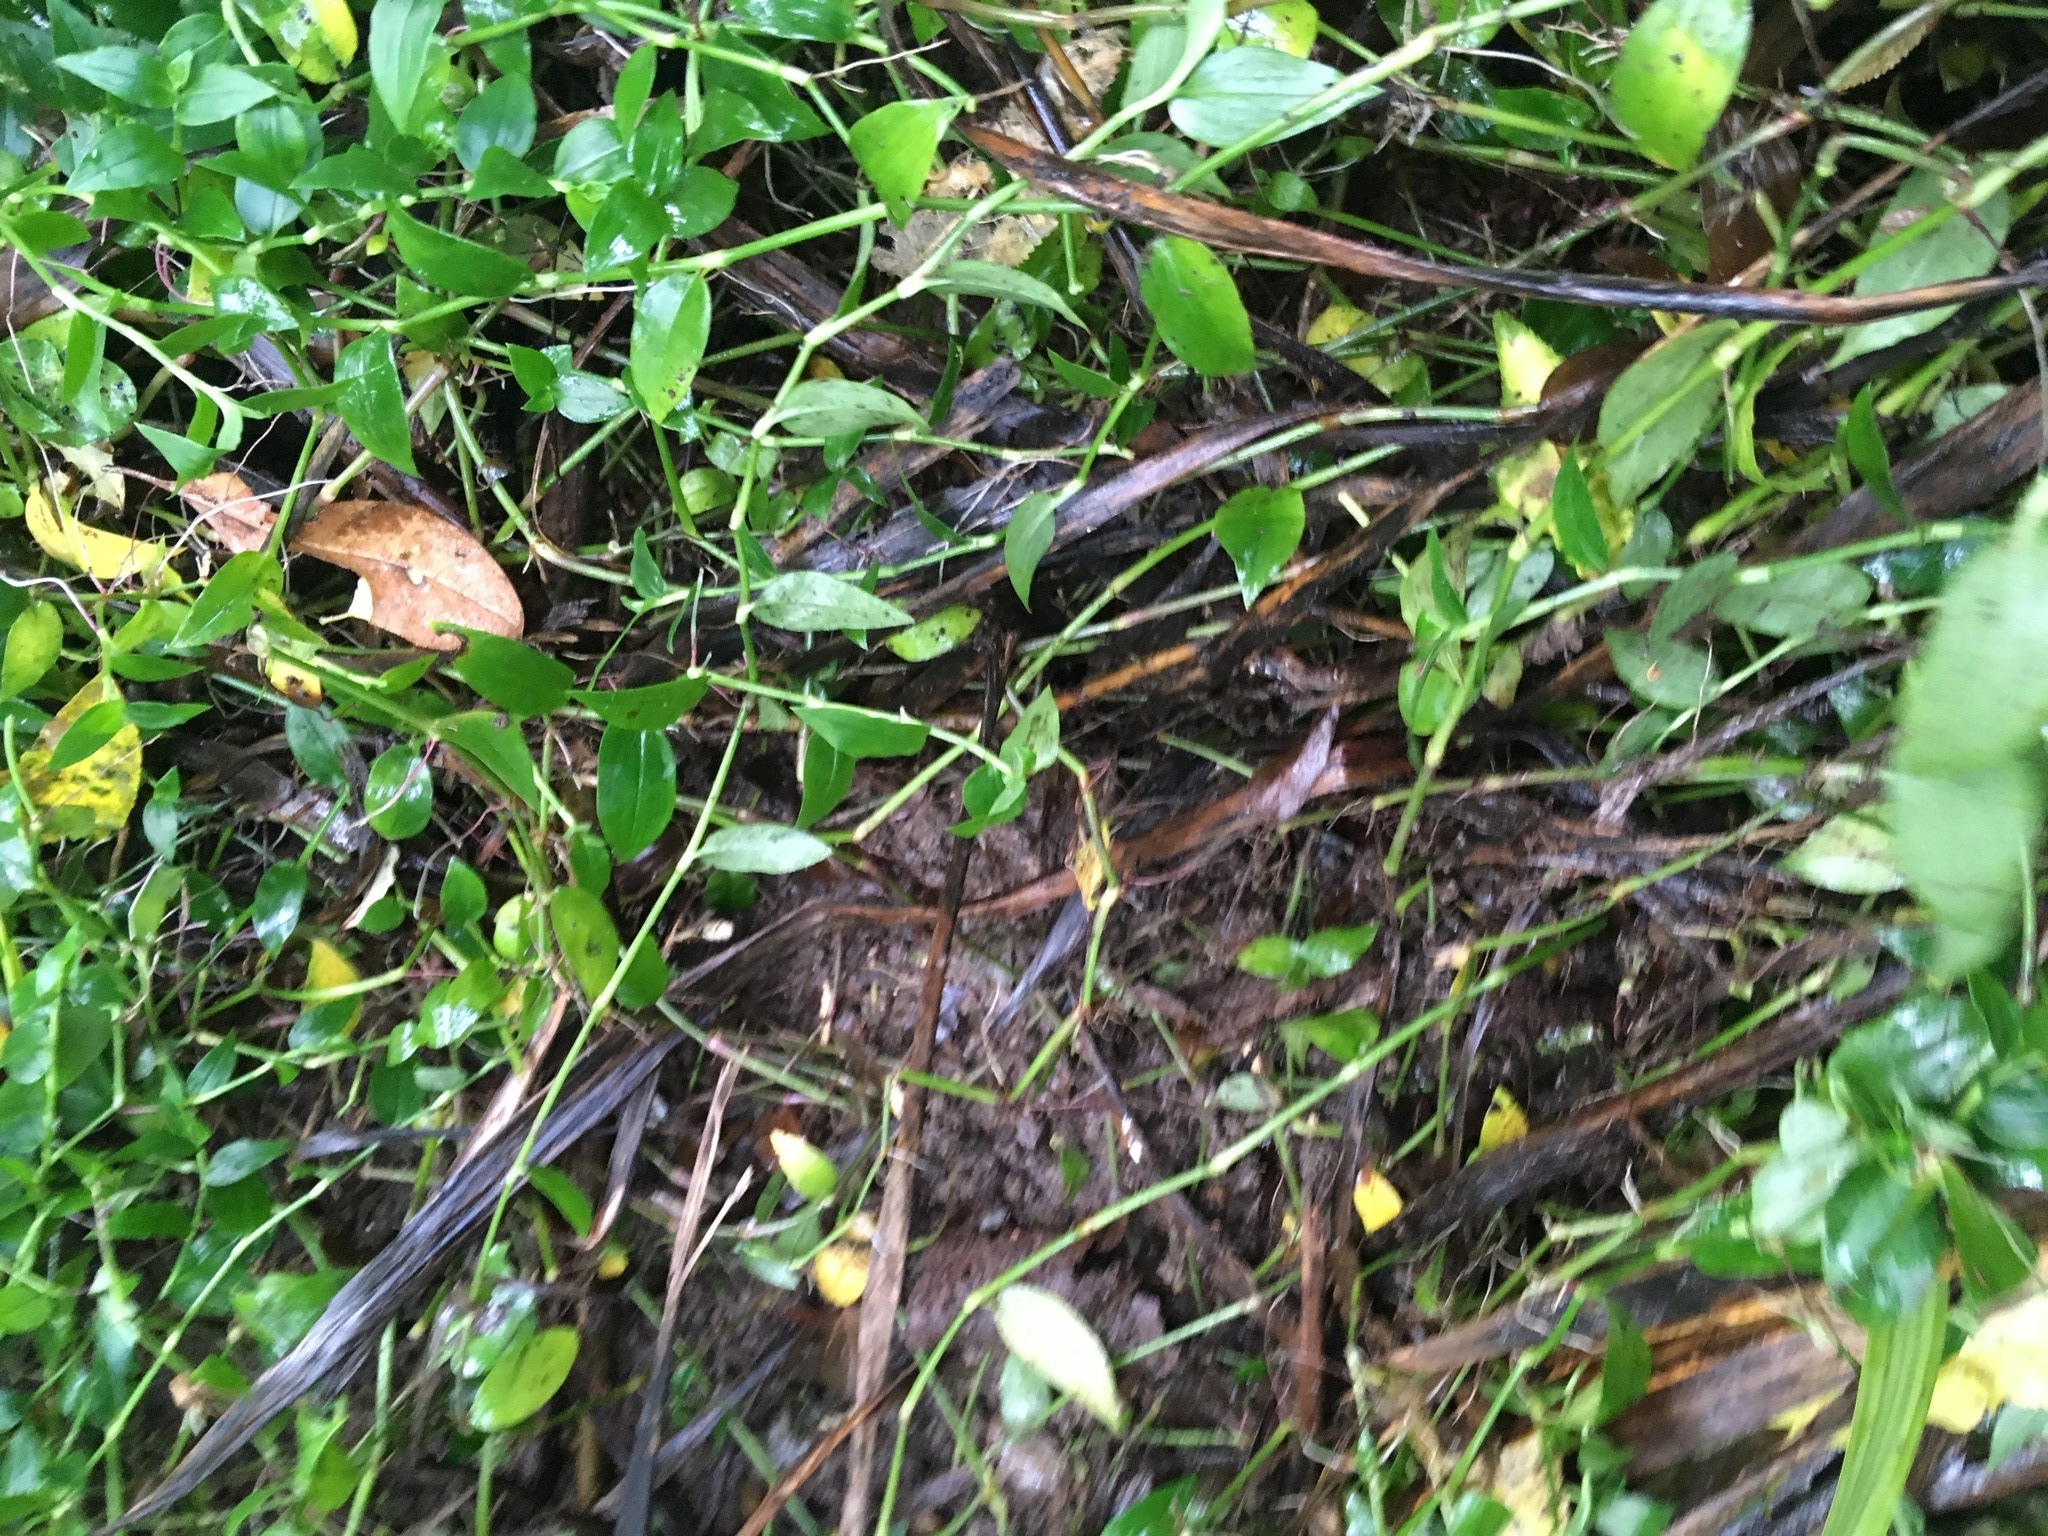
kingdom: Plantae
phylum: Tracheophyta
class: Magnoliopsida
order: Piperales
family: Piperaceae
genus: Macropiper
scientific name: Macropiper excelsum
